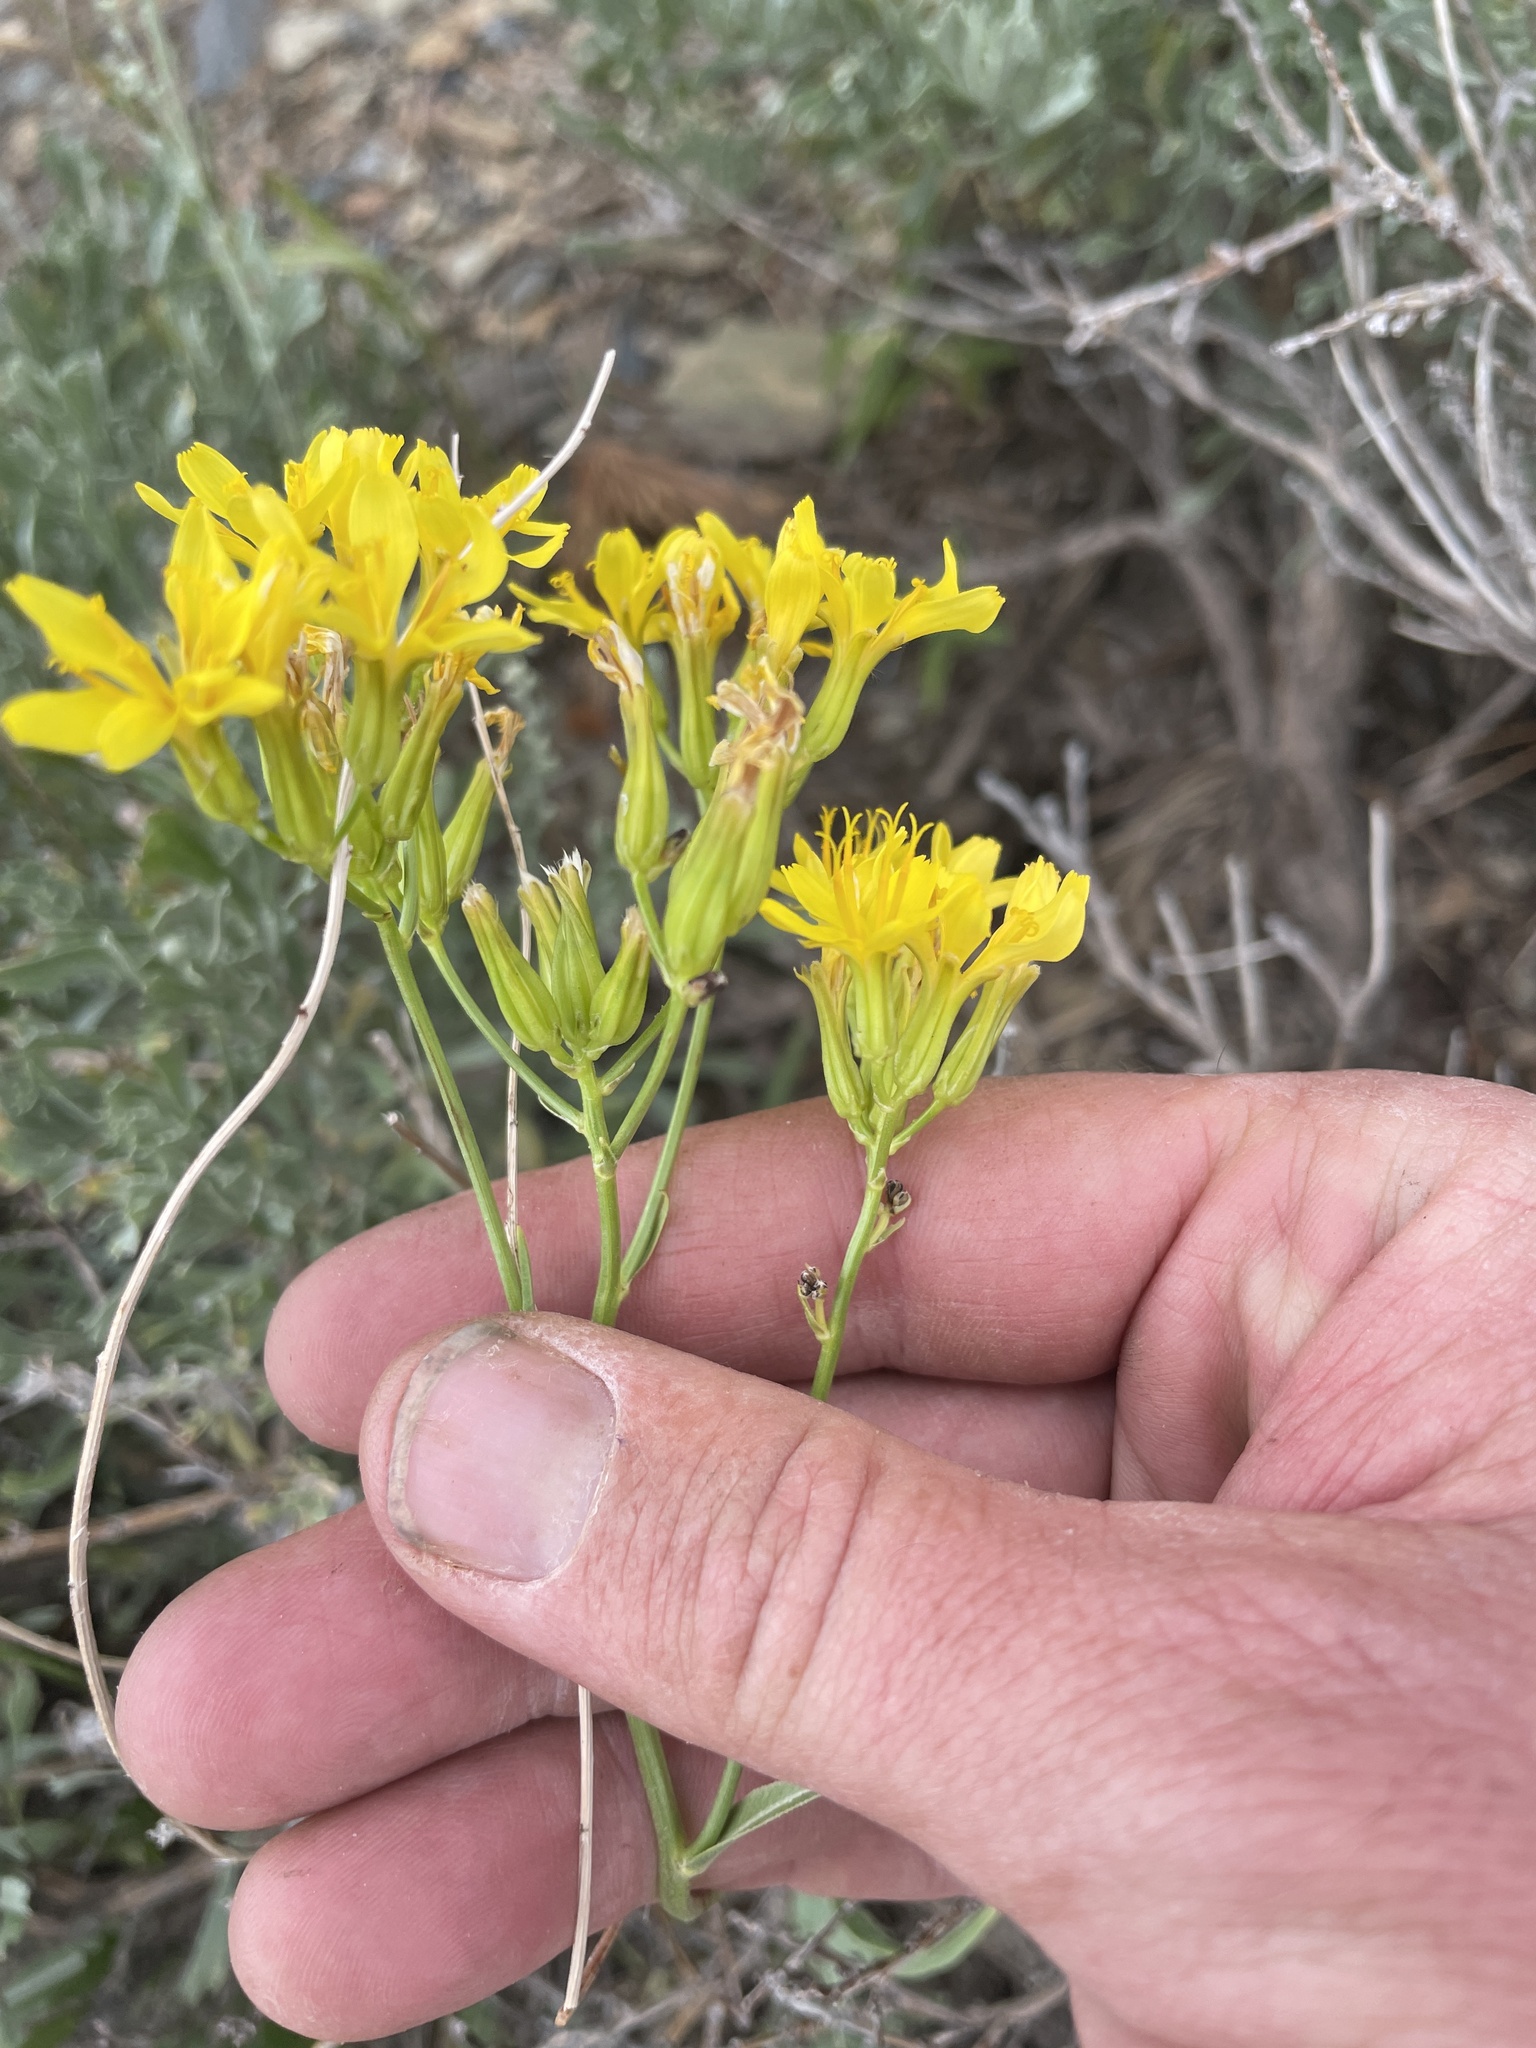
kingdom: Plantae
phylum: Tracheophyta
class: Magnoliopsida
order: Asterales
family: Asteraceae
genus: Crepis
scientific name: Crepis acuminata
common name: Longleaf hawk's-beard
